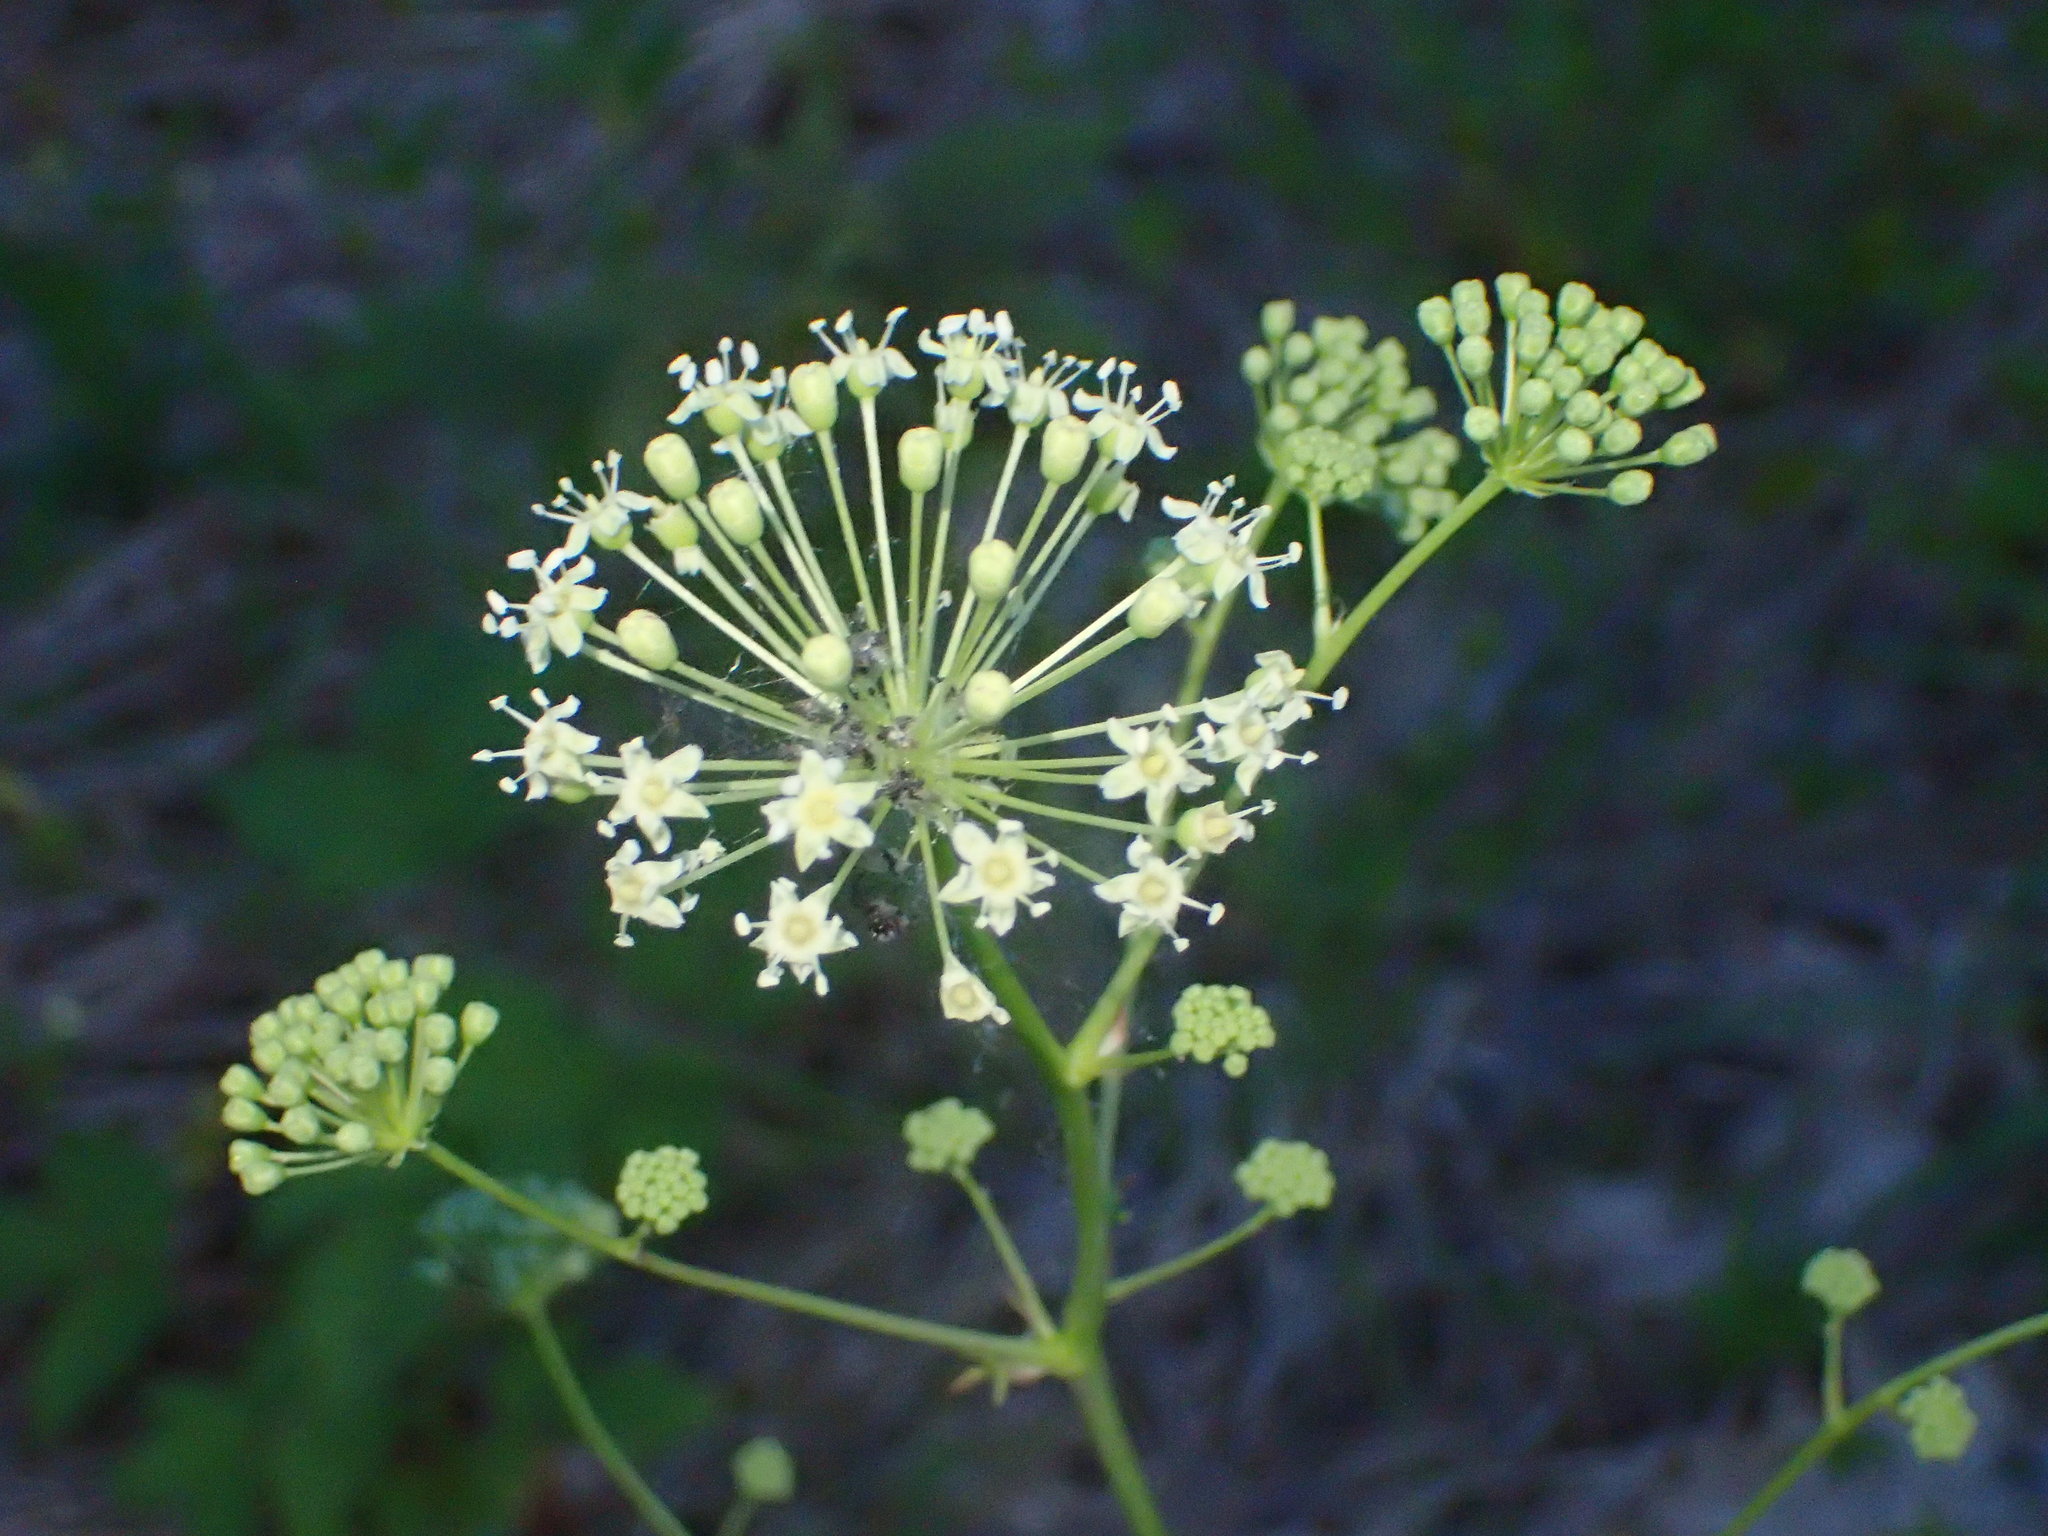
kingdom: Plantae
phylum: Tracheophyta
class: Magnoliopsida
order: Apiales
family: Araliaceae
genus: Aralia
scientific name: Aralia hispida
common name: Bristly sarsaparilla
